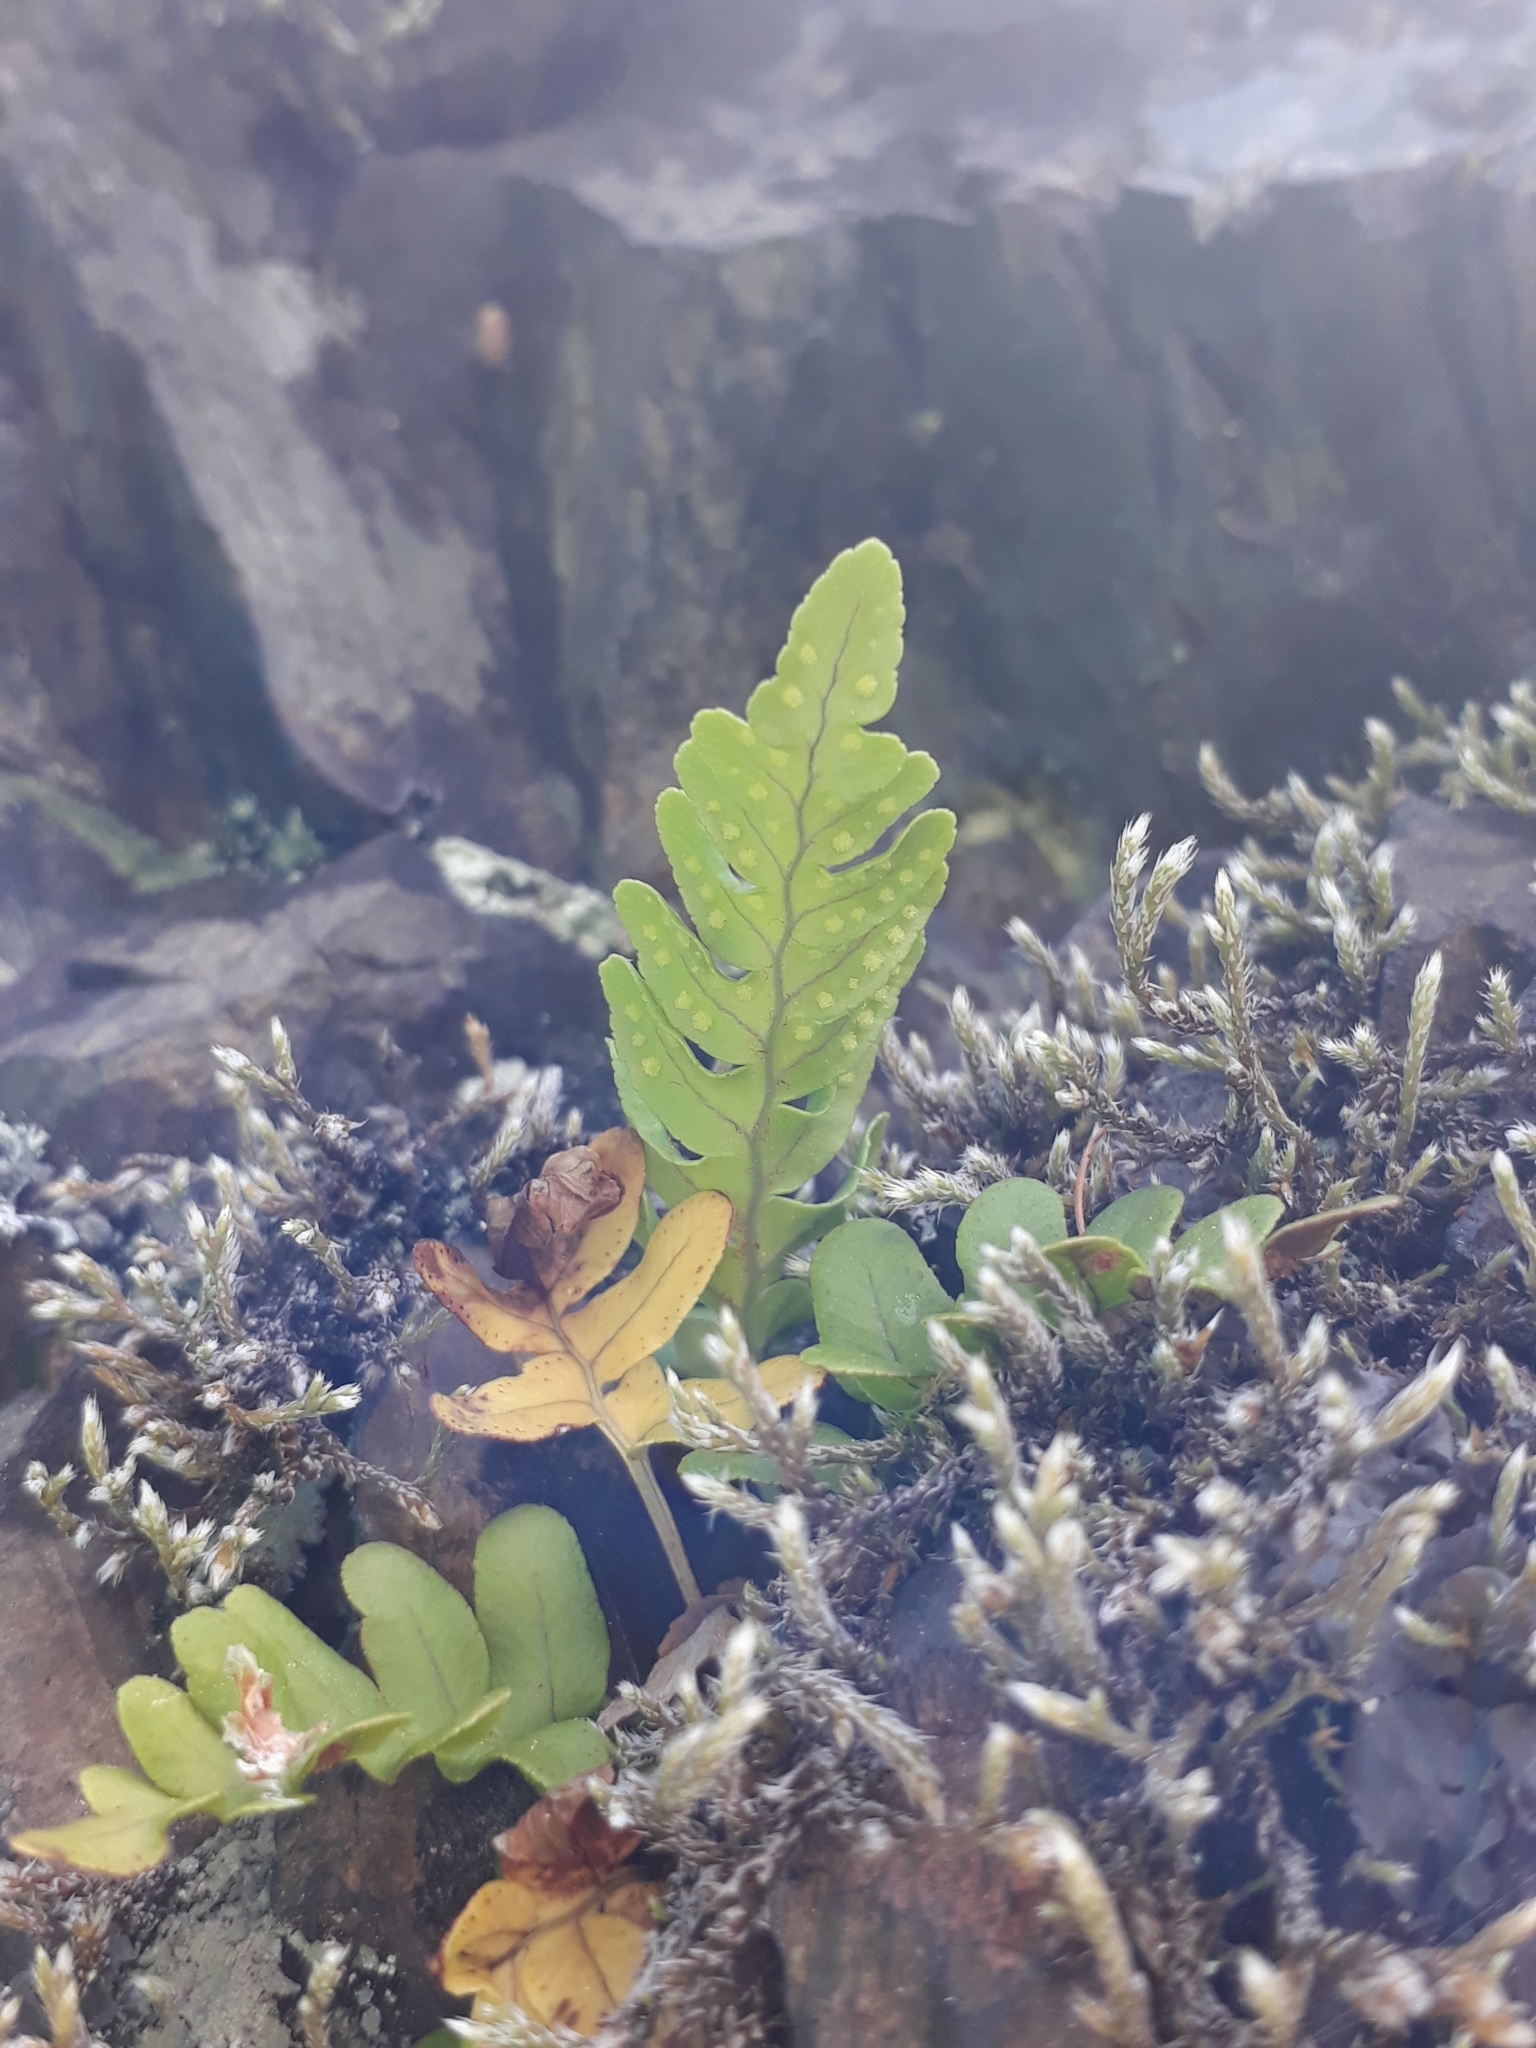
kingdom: Plantae
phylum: Tracheophyta
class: Polypodiopsida
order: Polypodiales
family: Polypodiaceae
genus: Polypodium
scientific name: Polypodium vulgare
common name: Common polypody
